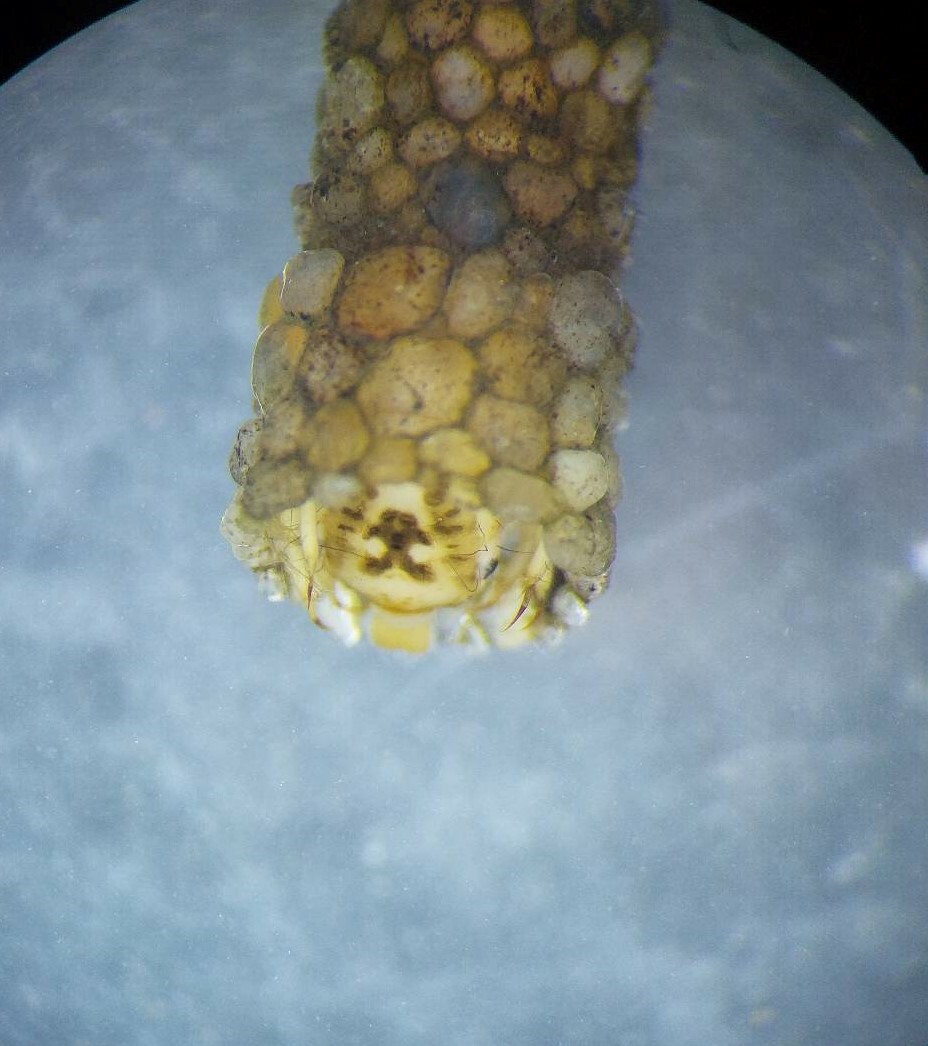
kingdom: Animalia
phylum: Arthropoda
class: Insecta
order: Trichoptera
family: Odontoceridae
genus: Odontocerum
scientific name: Odontocerum albicorne
